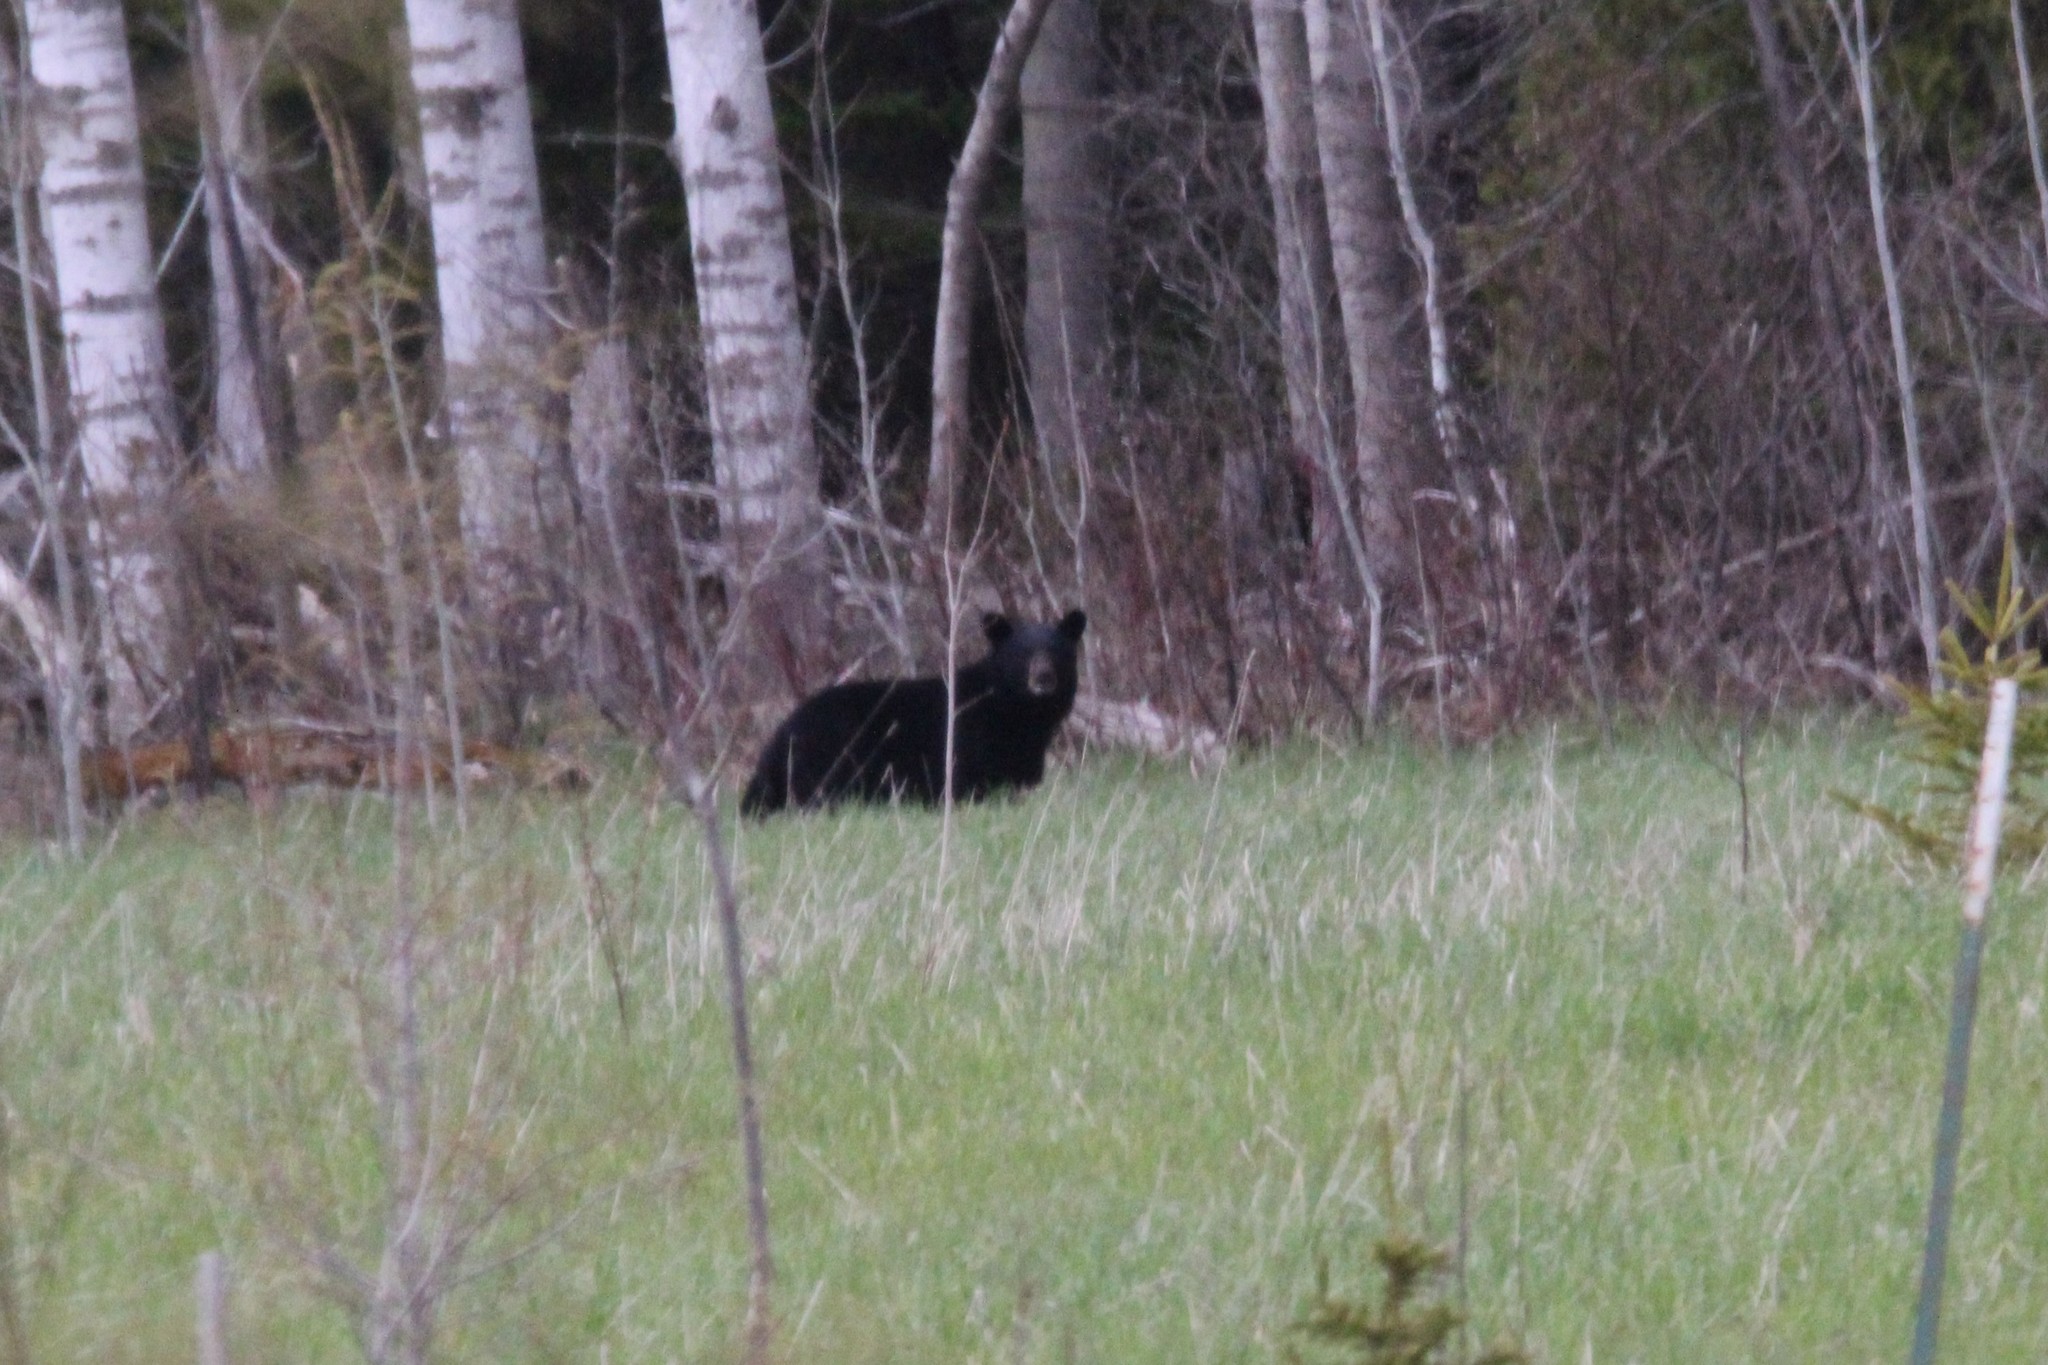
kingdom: Animalia
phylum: Chordata
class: Mammalia
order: Carnivora
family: Ursidae
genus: Ursus
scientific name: Ursus americanus
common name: American black bear
